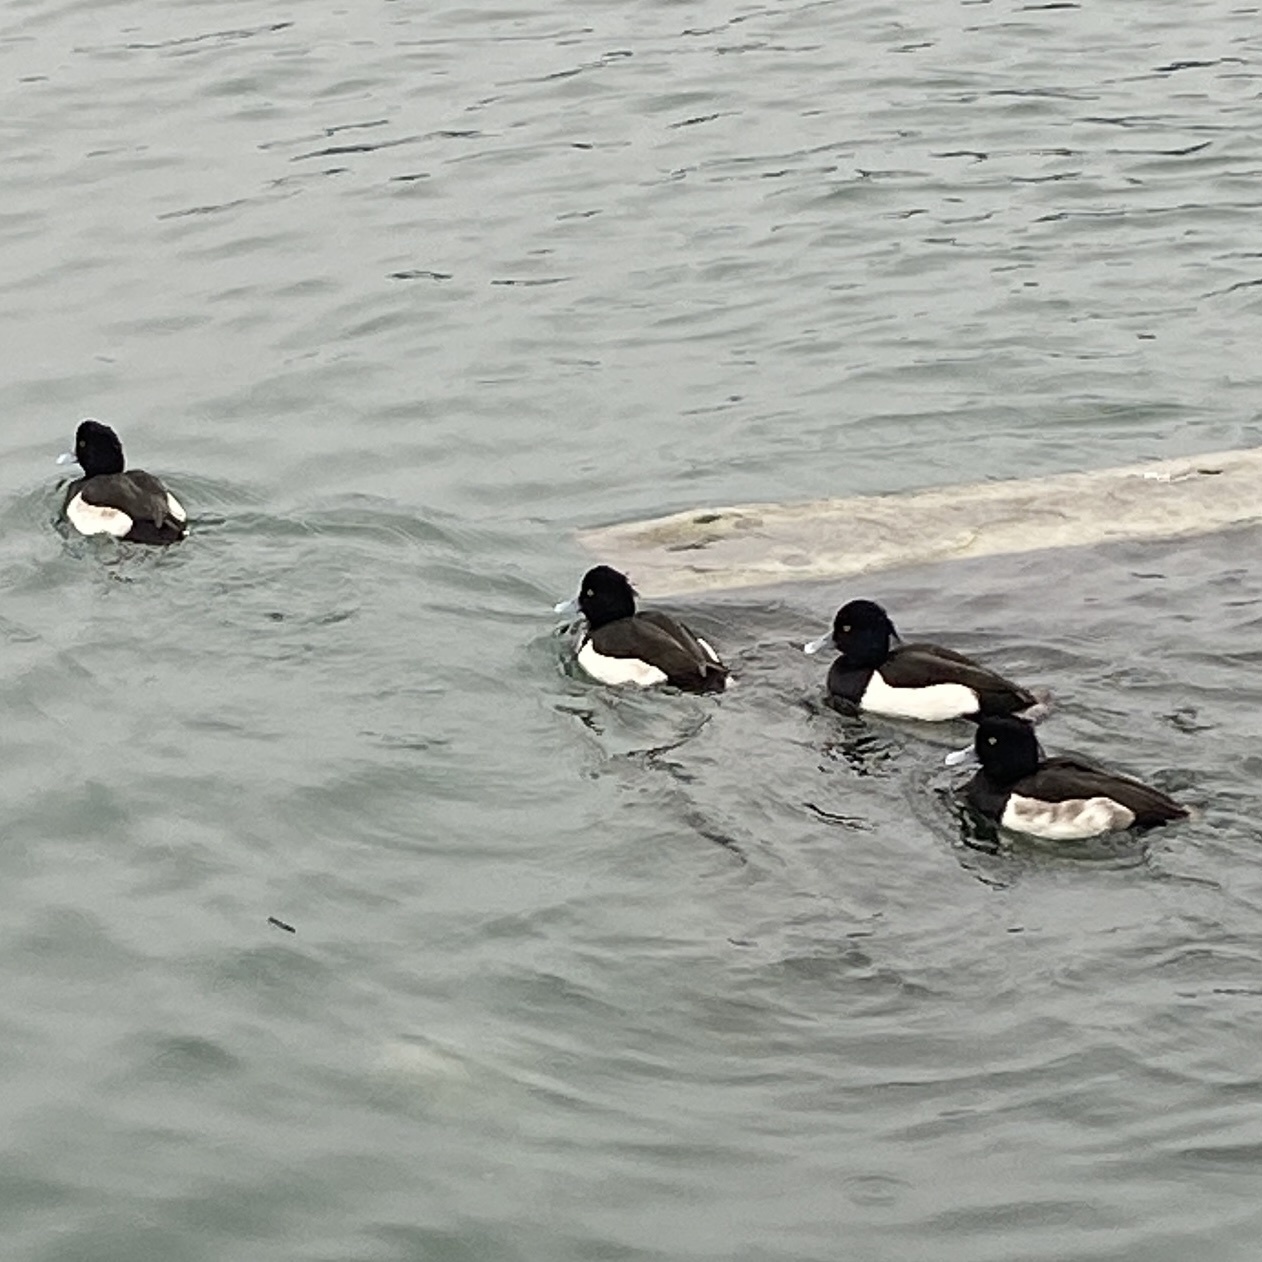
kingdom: Animalia
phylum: Chordata
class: Aves
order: Anseriformes
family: Anatidae
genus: Aythya
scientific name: Aythya fuligula
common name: Tufted duck
